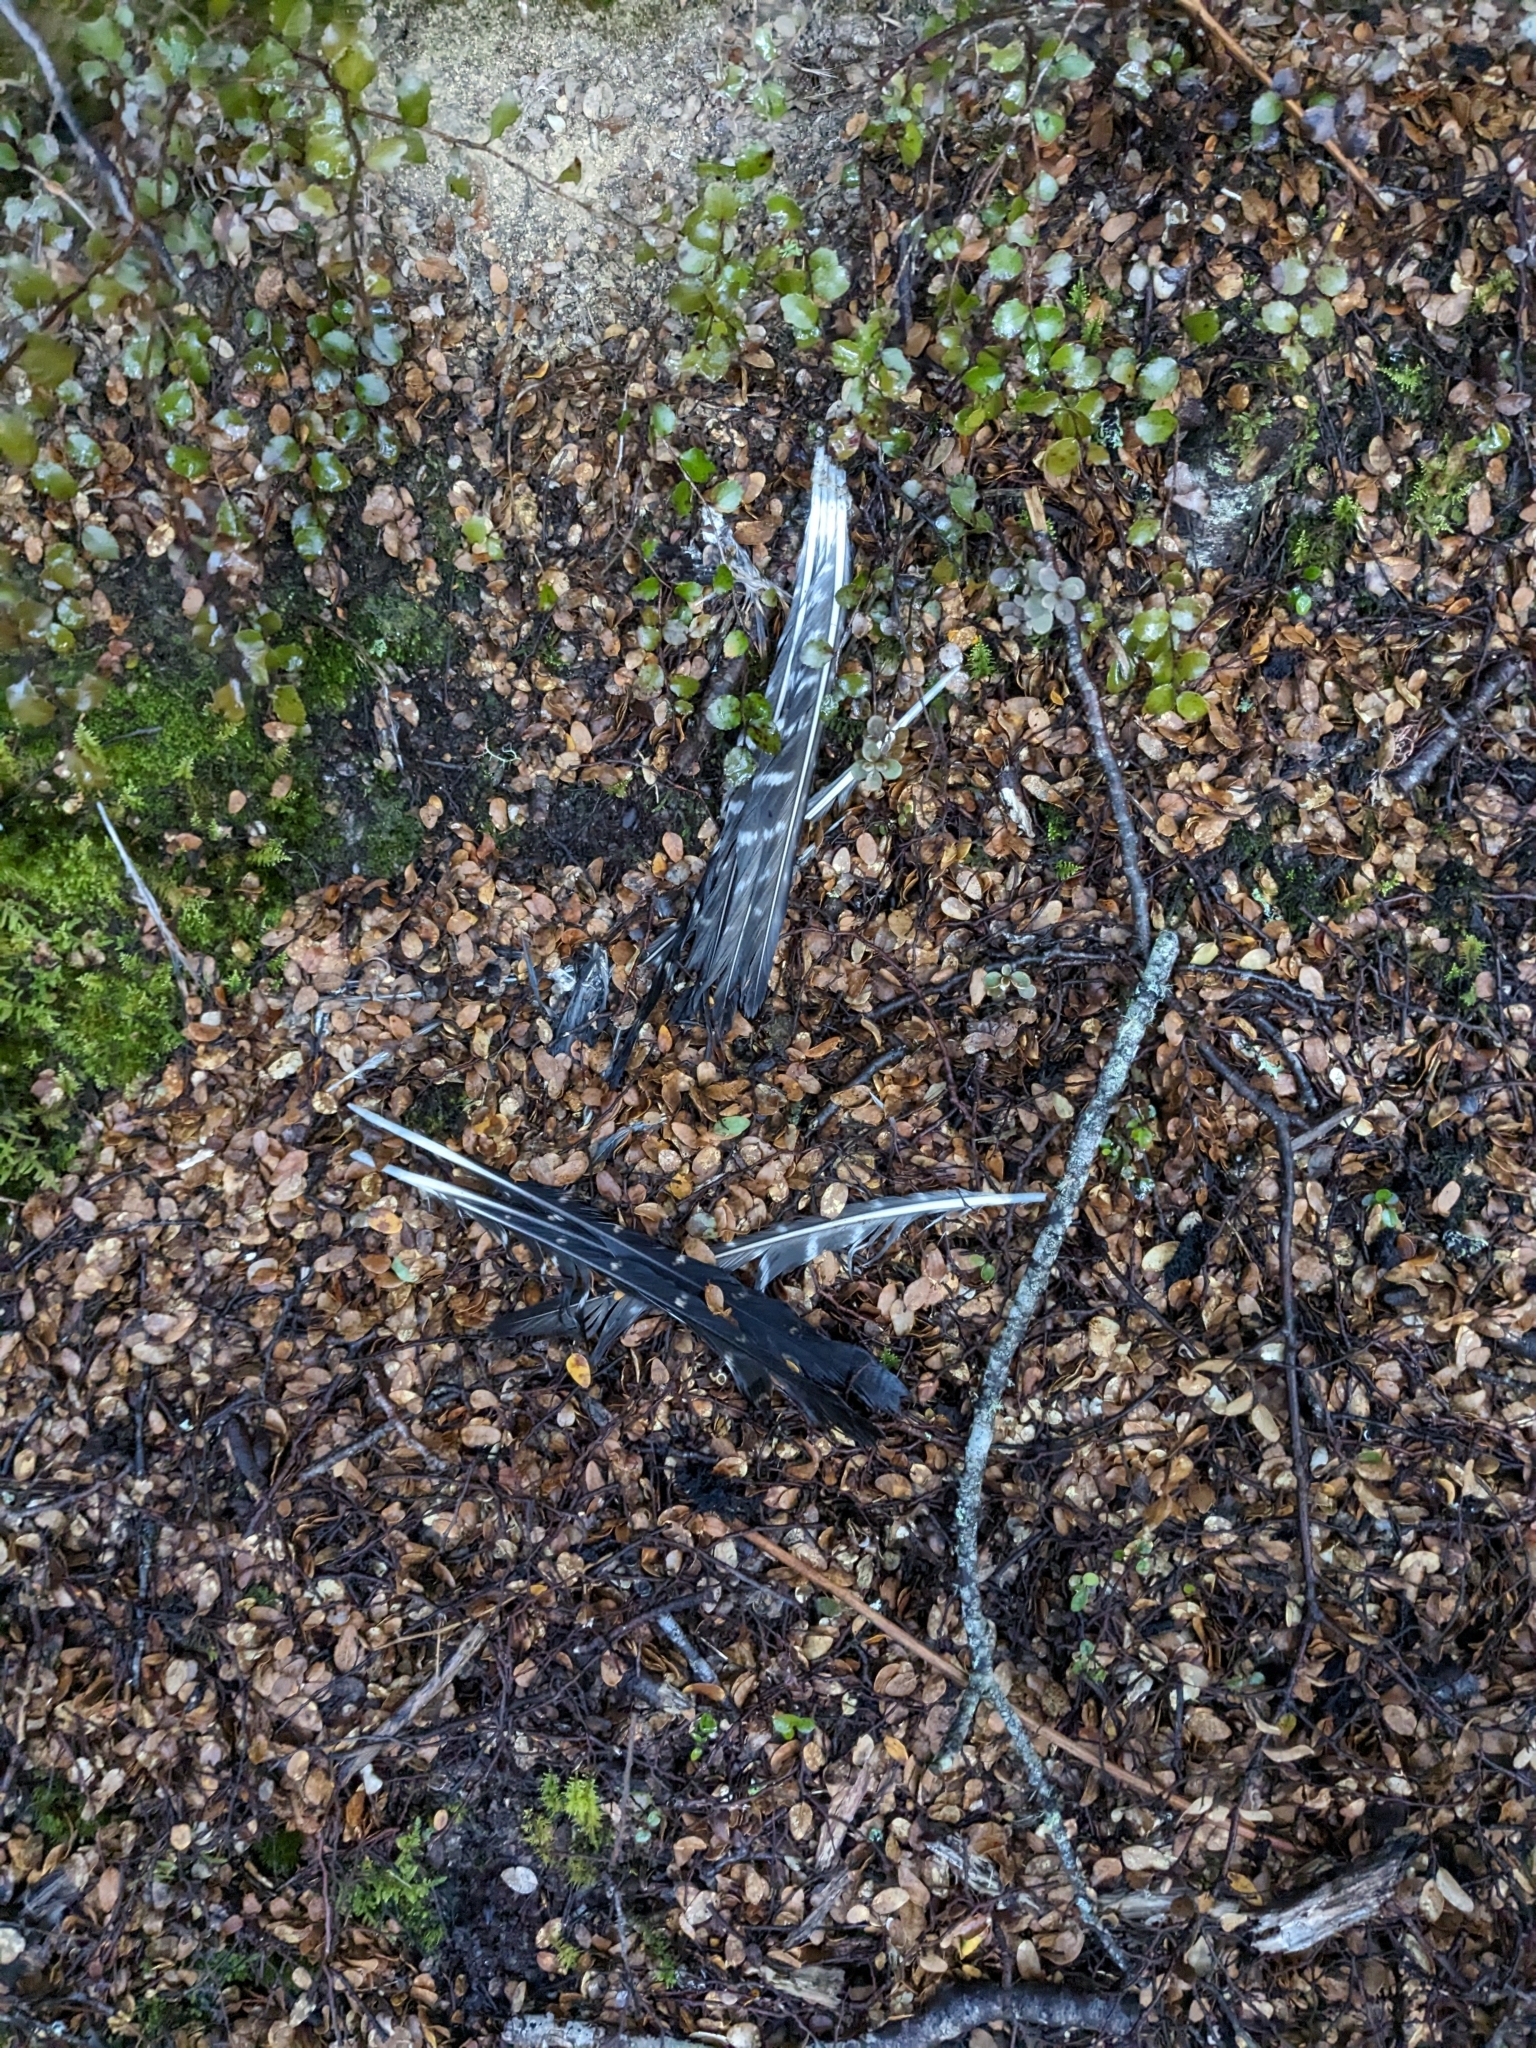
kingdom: Animalia
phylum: Chordata
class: Aves
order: Falconiformes
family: Falconidae
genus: Falco
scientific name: Falco novaeseelandiae
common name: New zealand falcon
